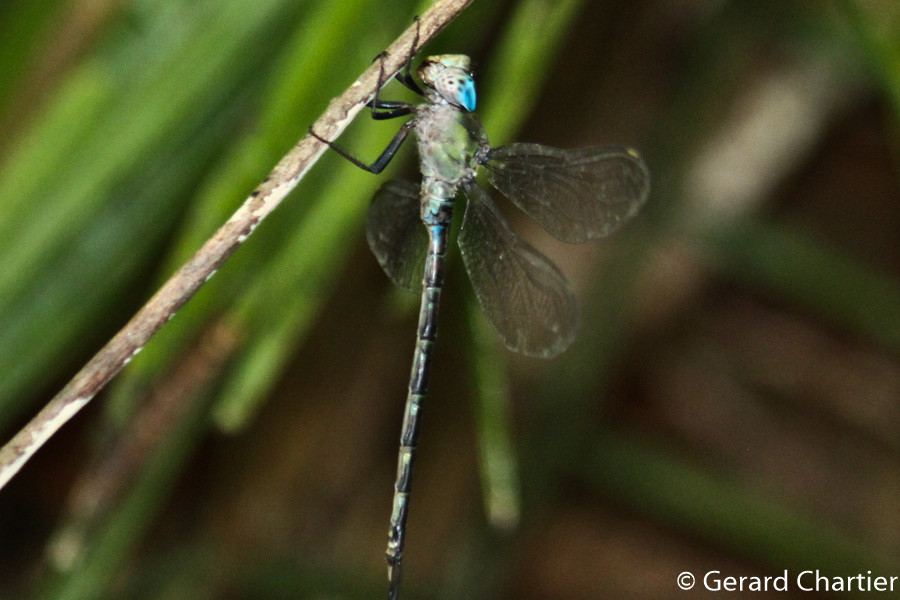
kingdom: Animalia
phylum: Arthropoda
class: Insecta
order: Odonata
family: Aeshnidae
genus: Gynacantha
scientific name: Gynacantha phaeomeria
